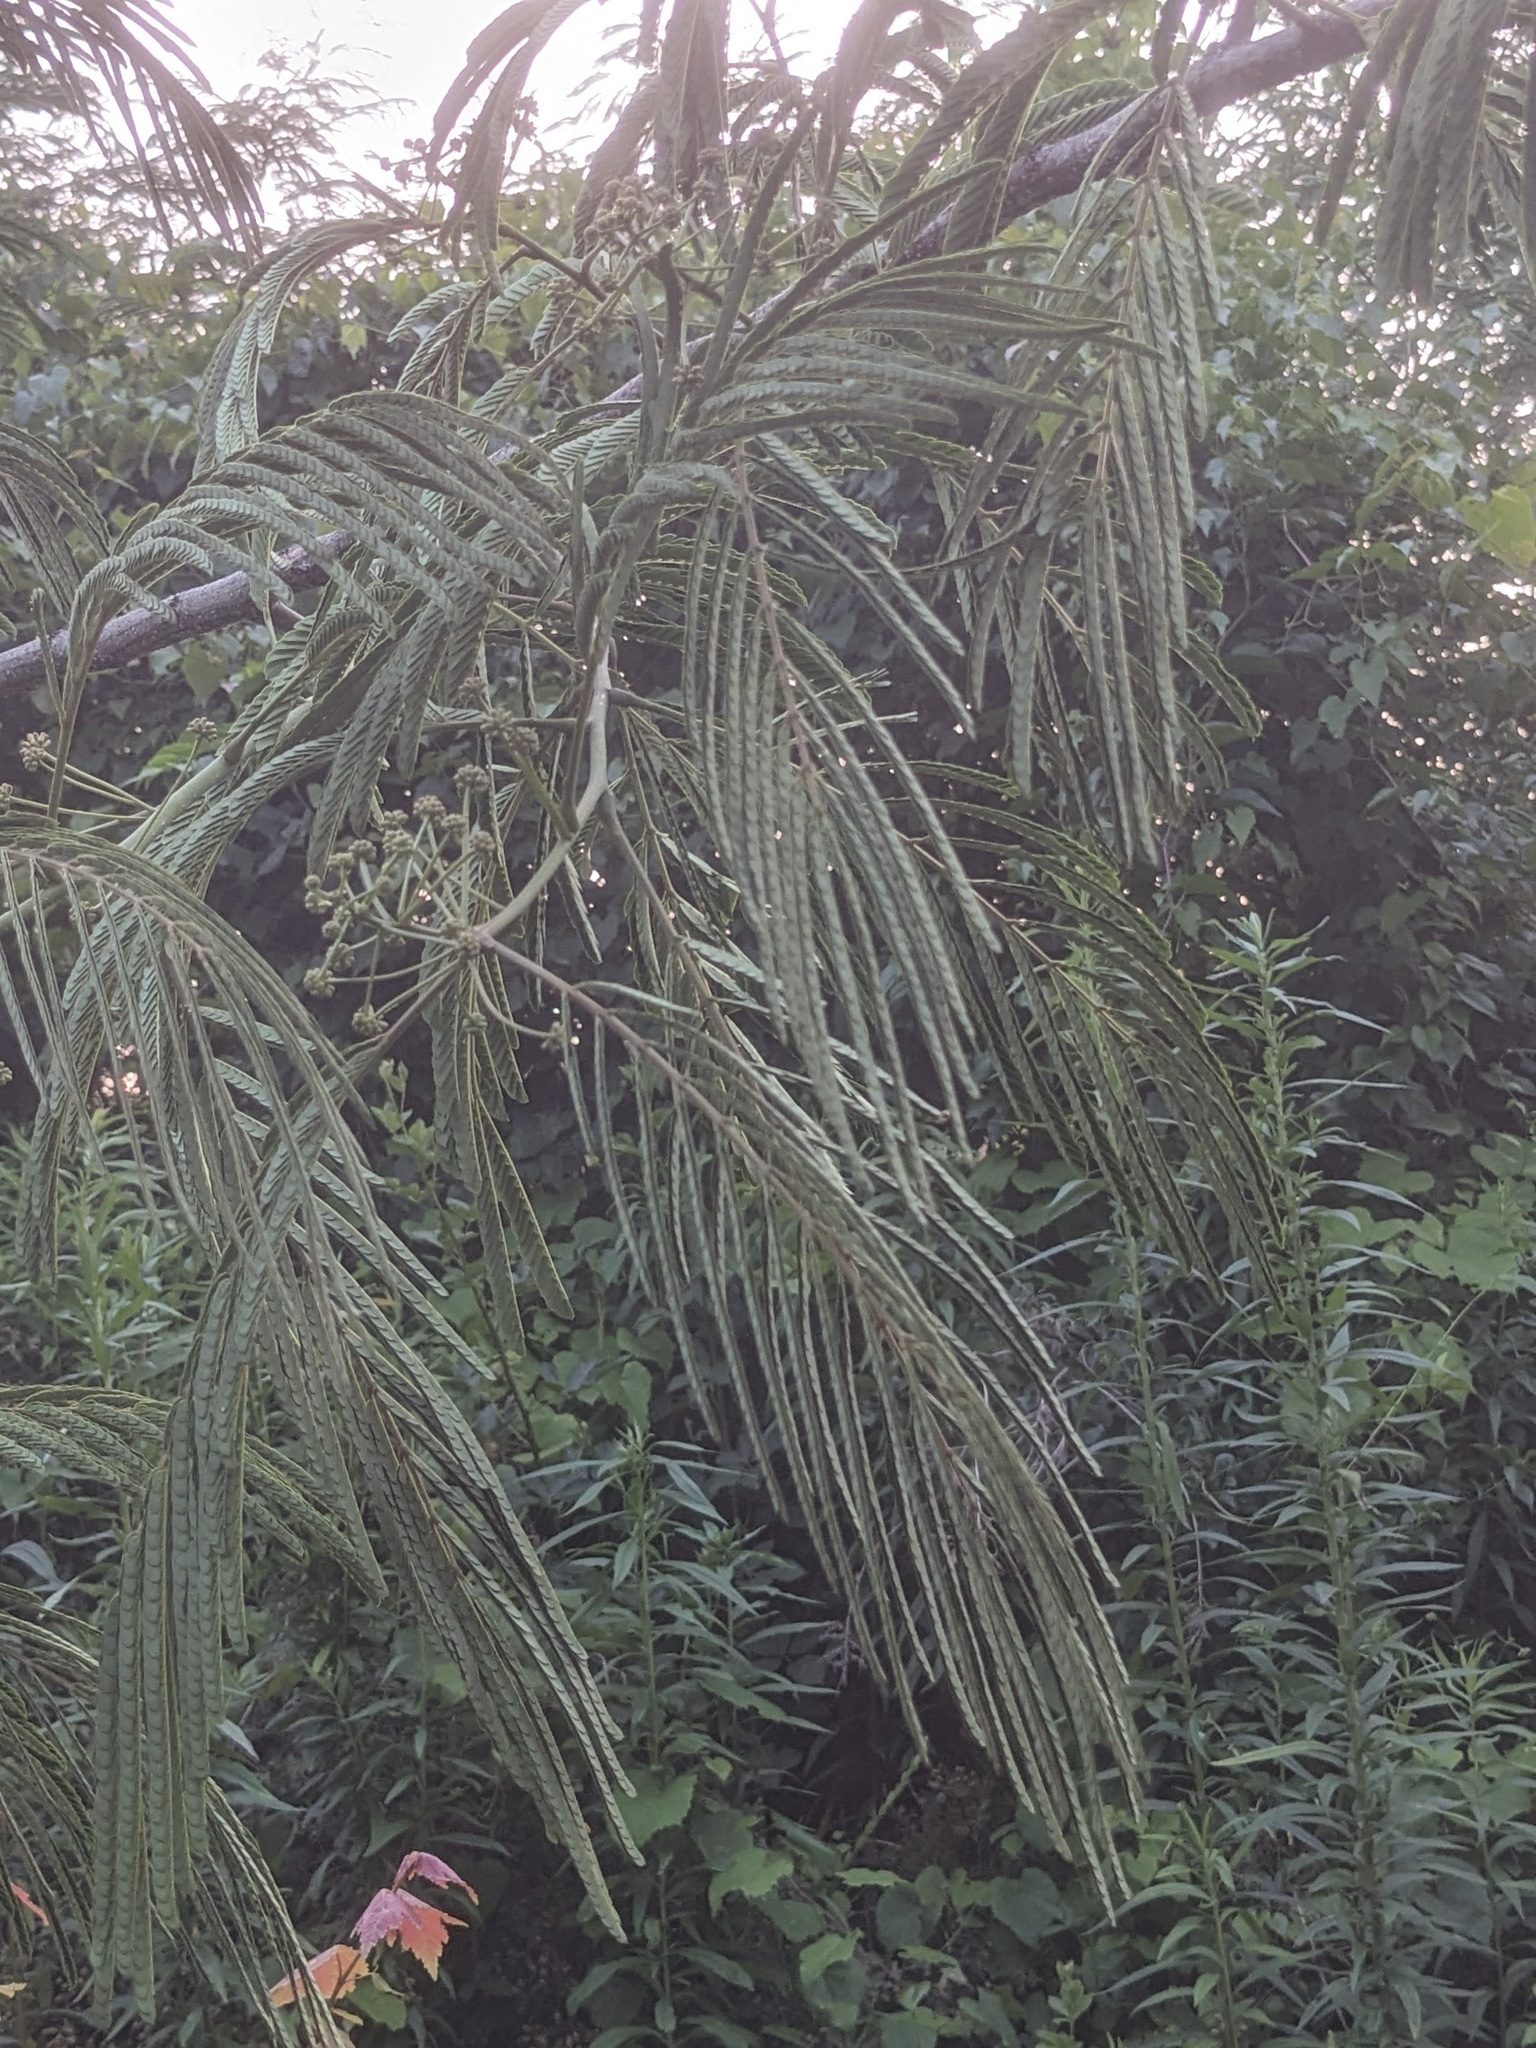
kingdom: Plantae
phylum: Tracheophyta
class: Magnoliopsida
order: Fabales
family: Fabaceae
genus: Albizia
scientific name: Albizia julibrissin
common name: Silktree
